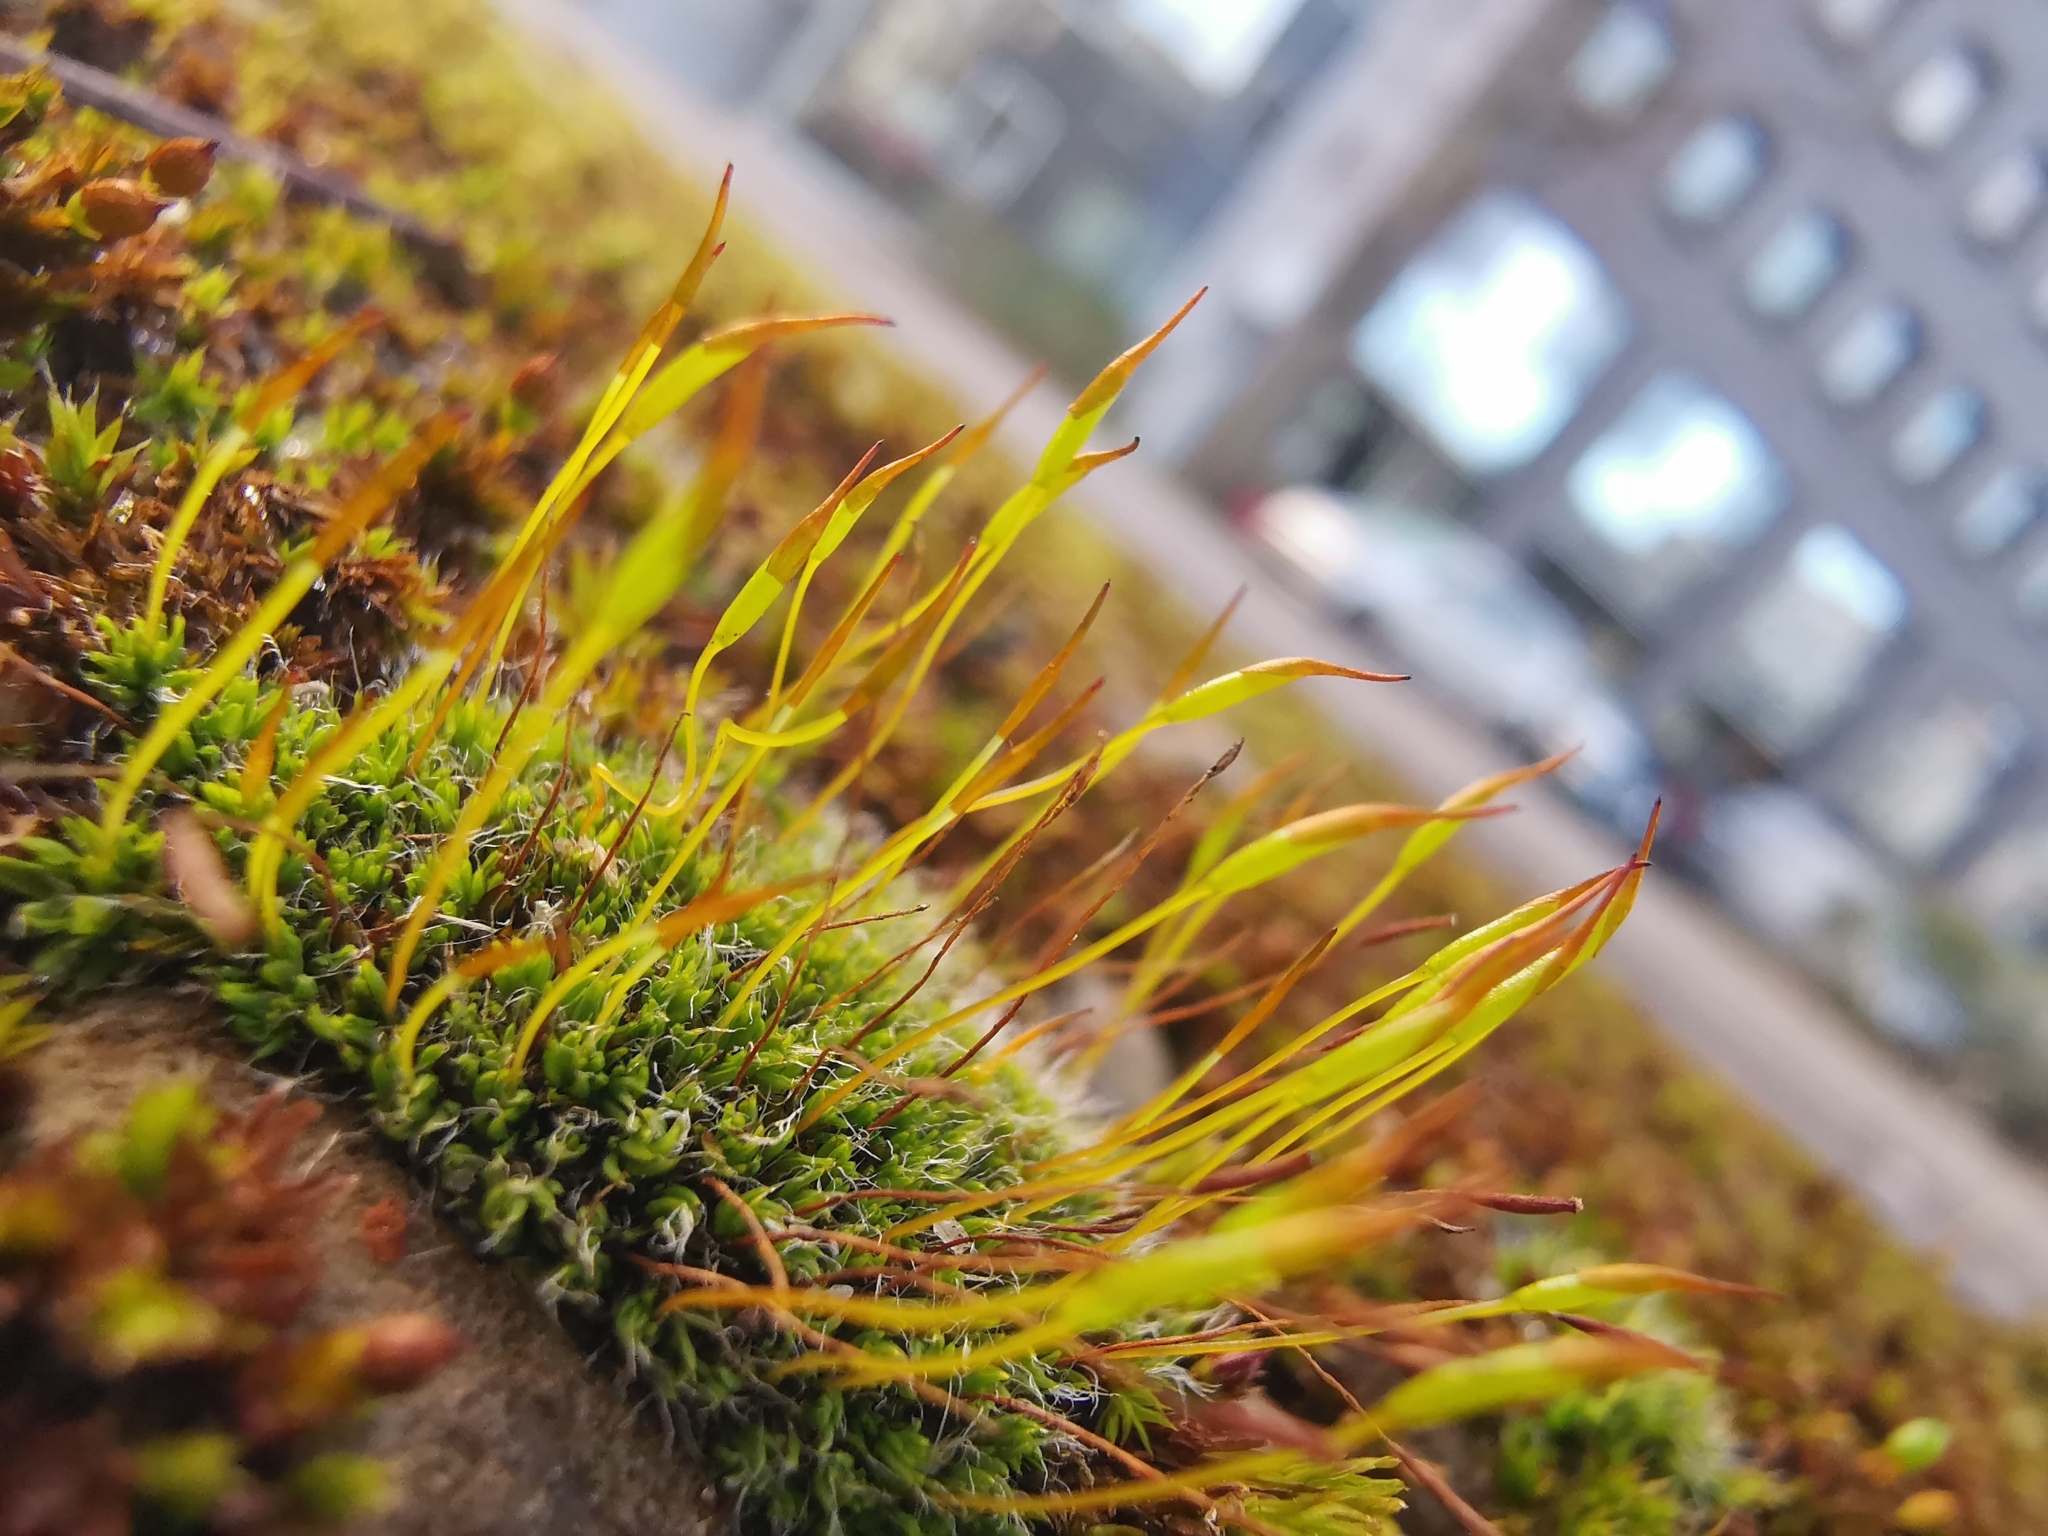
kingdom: Plantae
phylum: Bryophyta
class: Bryopsida
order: Pottiales
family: Pottiaceae
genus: Tortula
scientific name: Tortula muralis
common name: Wall screw-moss
